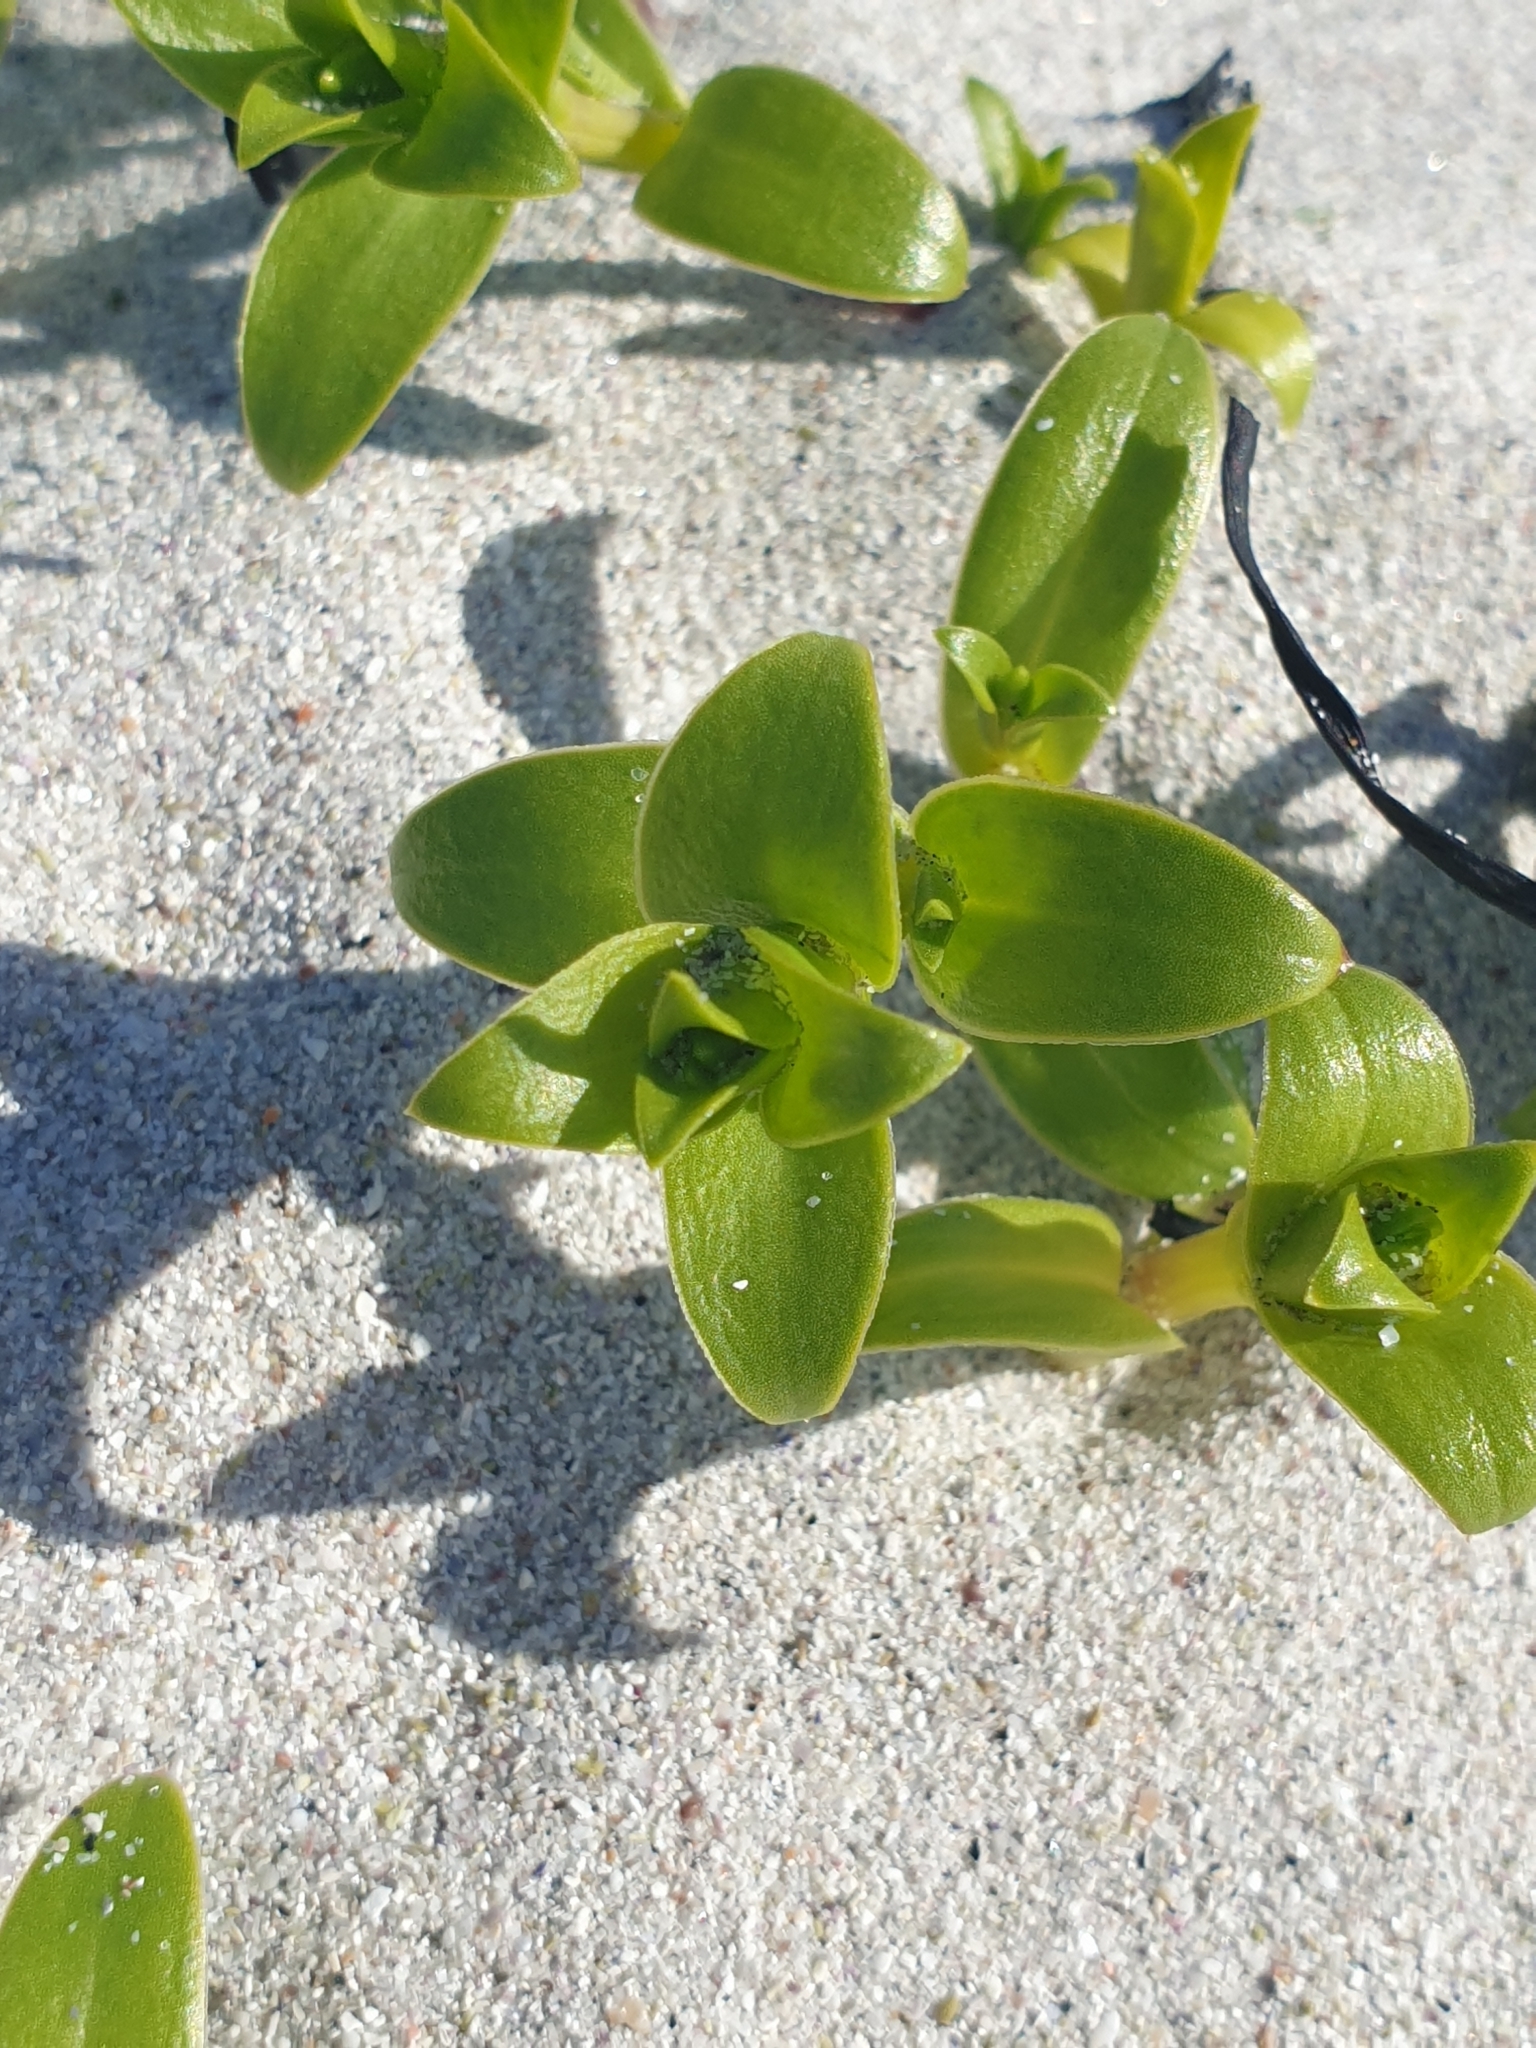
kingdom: Plantae
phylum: Tracheophyta
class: Magnoliopsida
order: Caryophyllales
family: Caryophyllaceae
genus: Honckenya
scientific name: Honckenya peploides
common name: Sea sandwort
